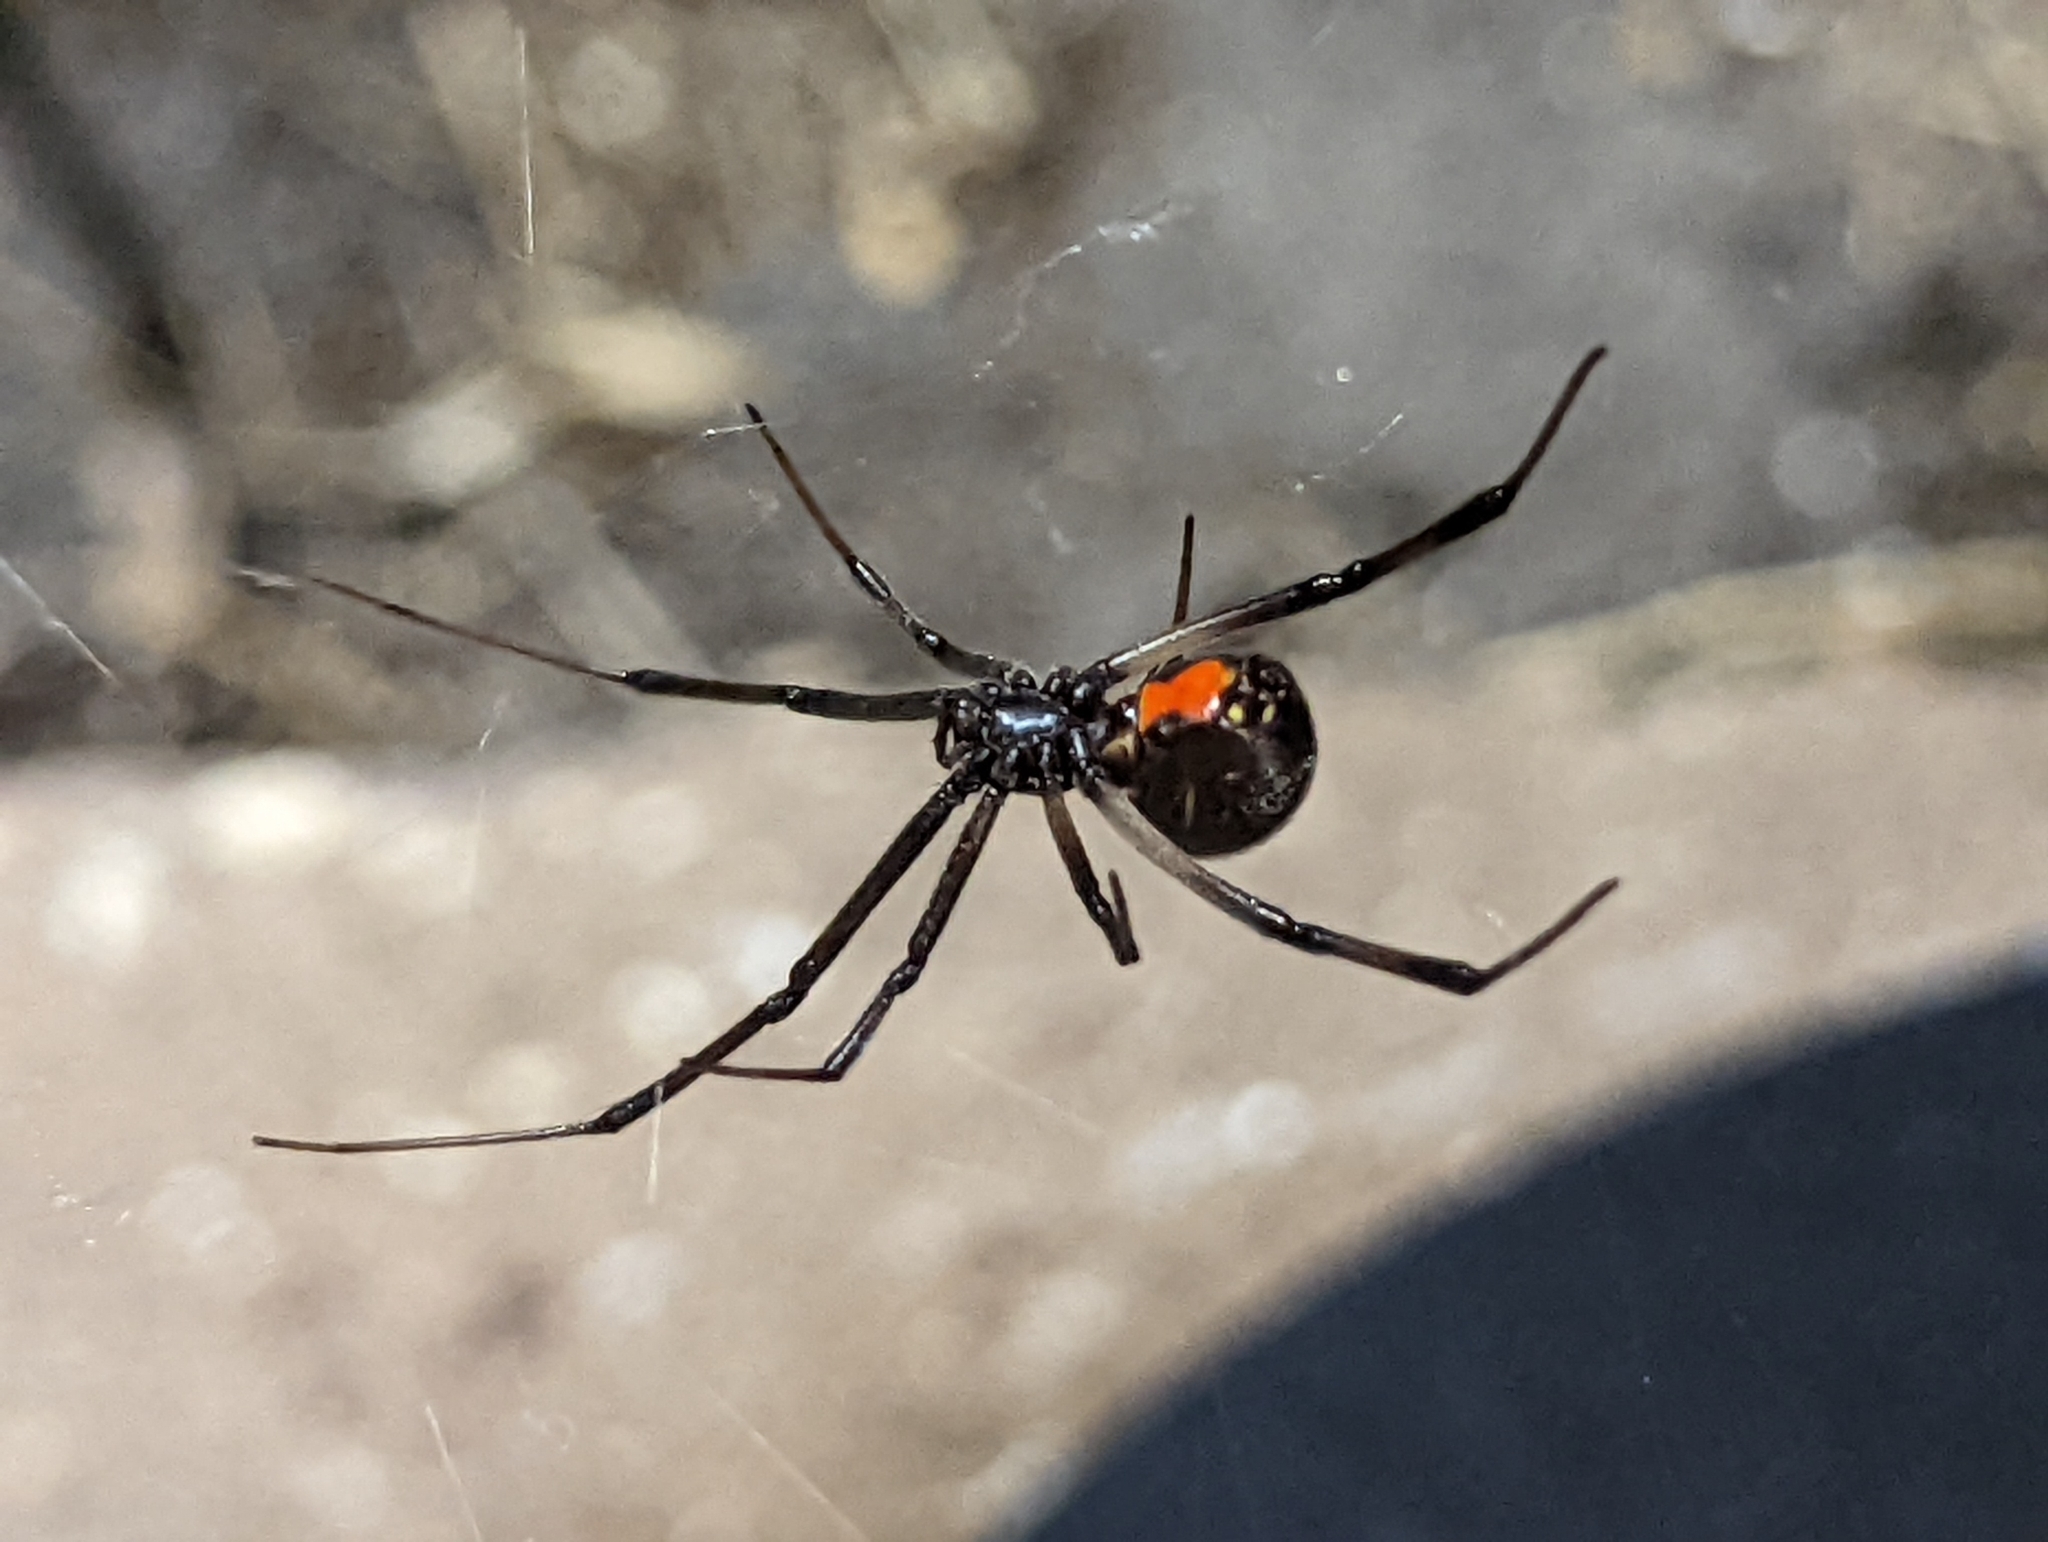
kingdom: Animalia
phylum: Arthropoda
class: Arachnida
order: Araneae
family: Theridiidae
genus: Latrodectus
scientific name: Latrodectus geometricus
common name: Brown widow spider
